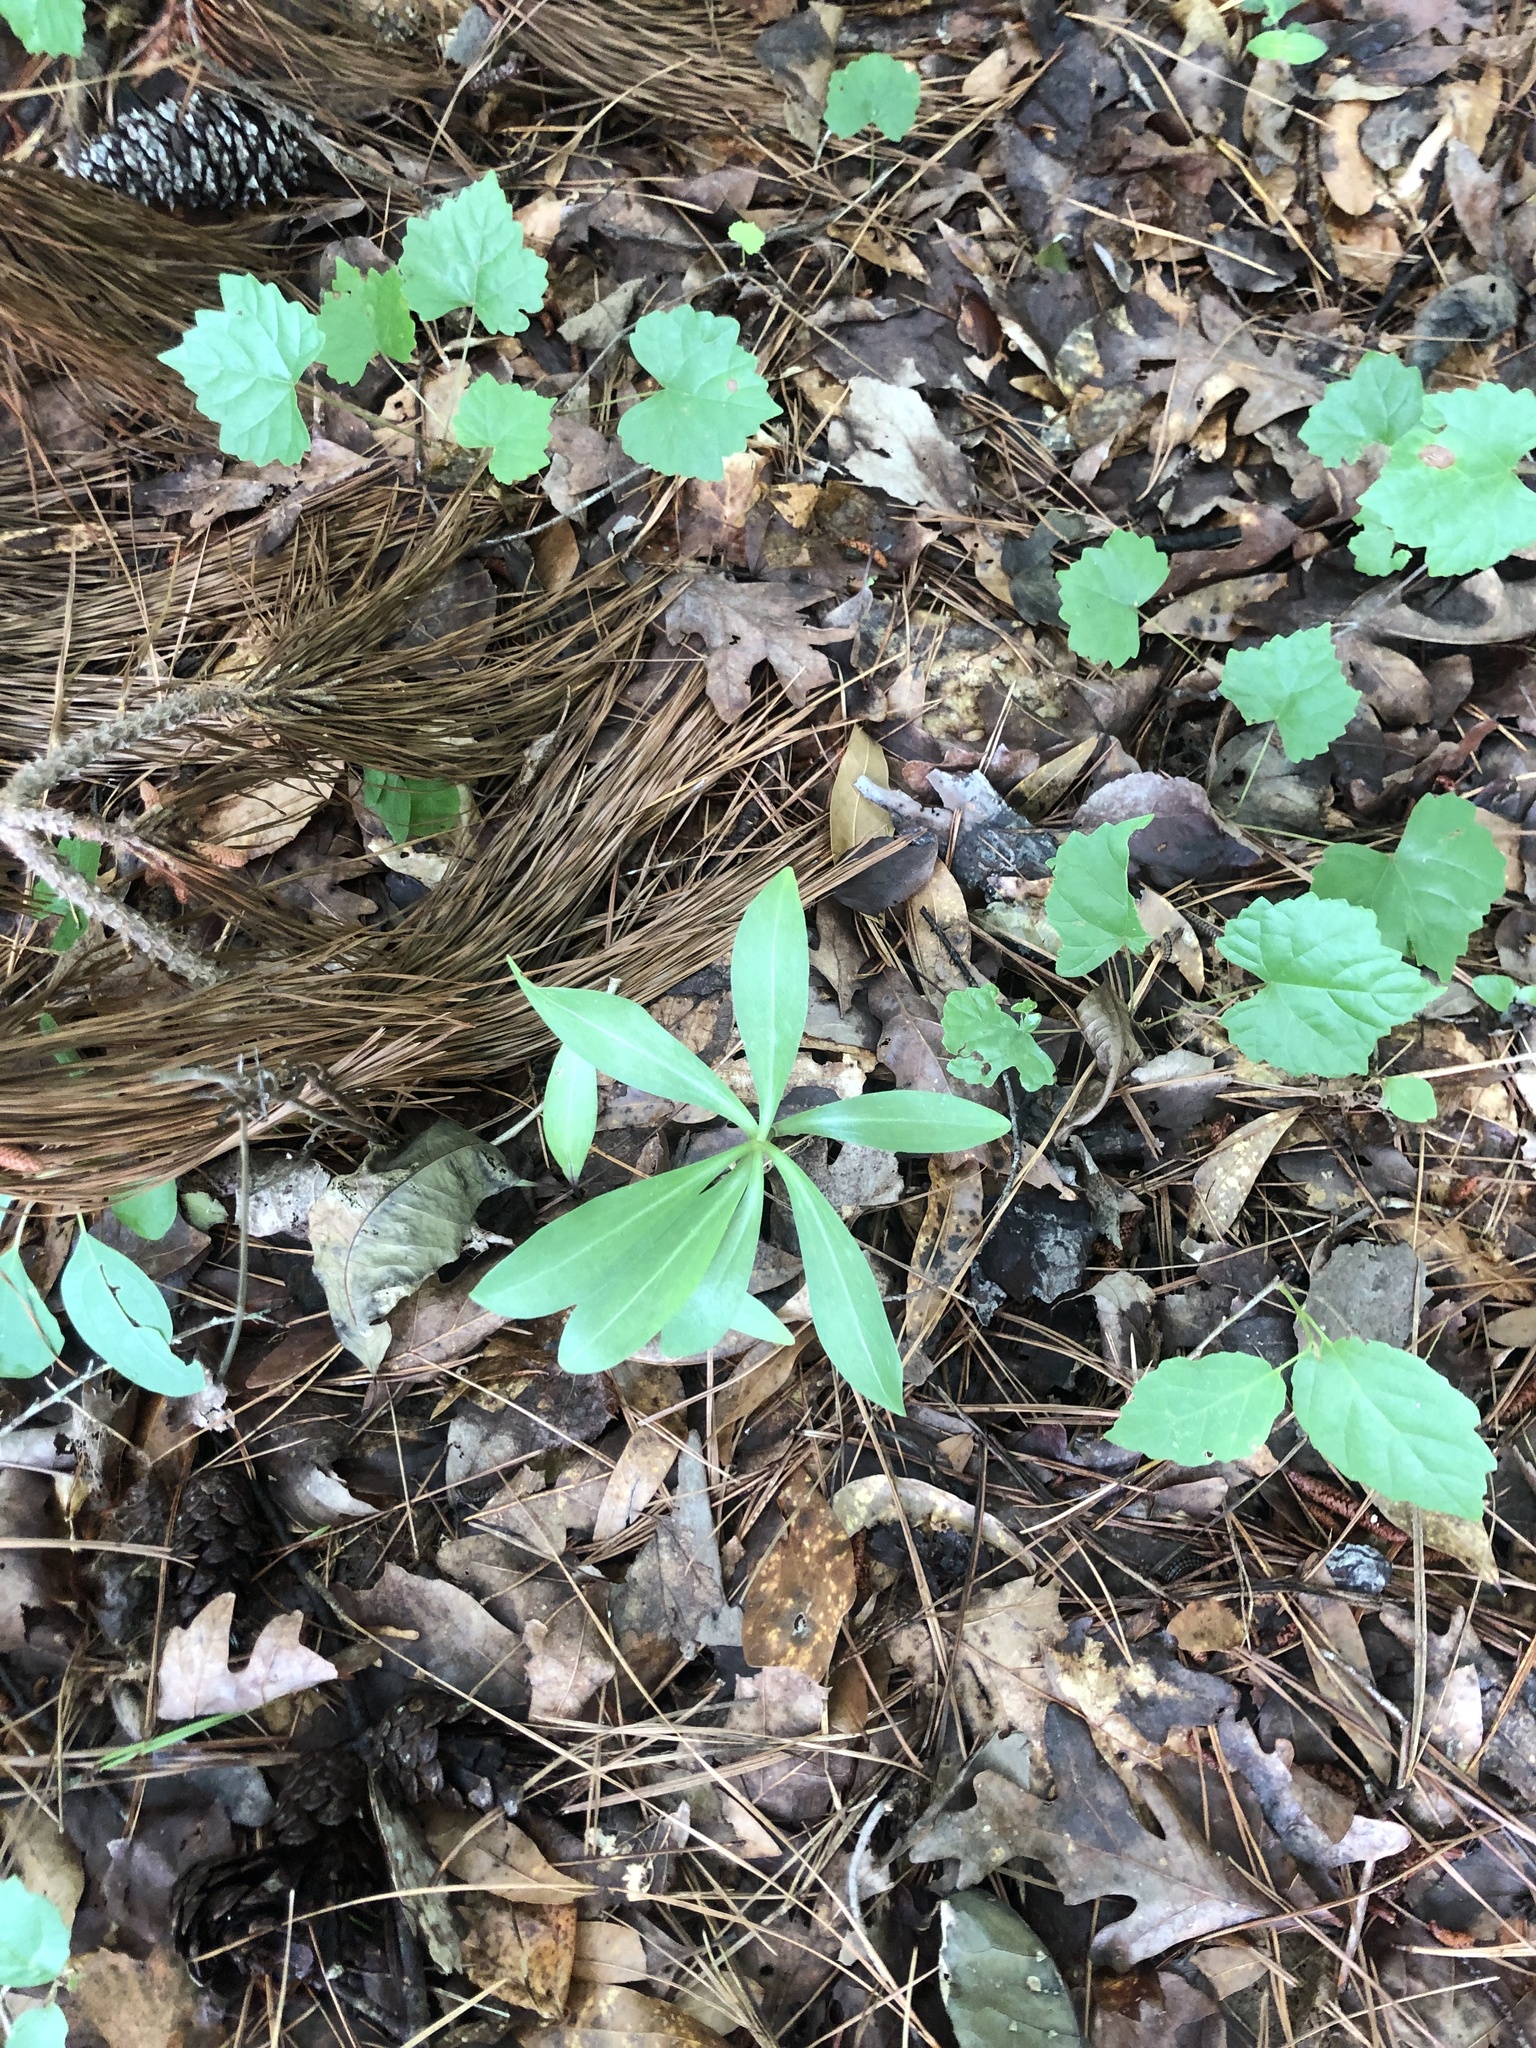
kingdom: Plantae
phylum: Tracheophyta
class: Liliopsida
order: Liliales
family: Liliaceae
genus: Lilium
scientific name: Lilium michauxii
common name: Carolina lily
